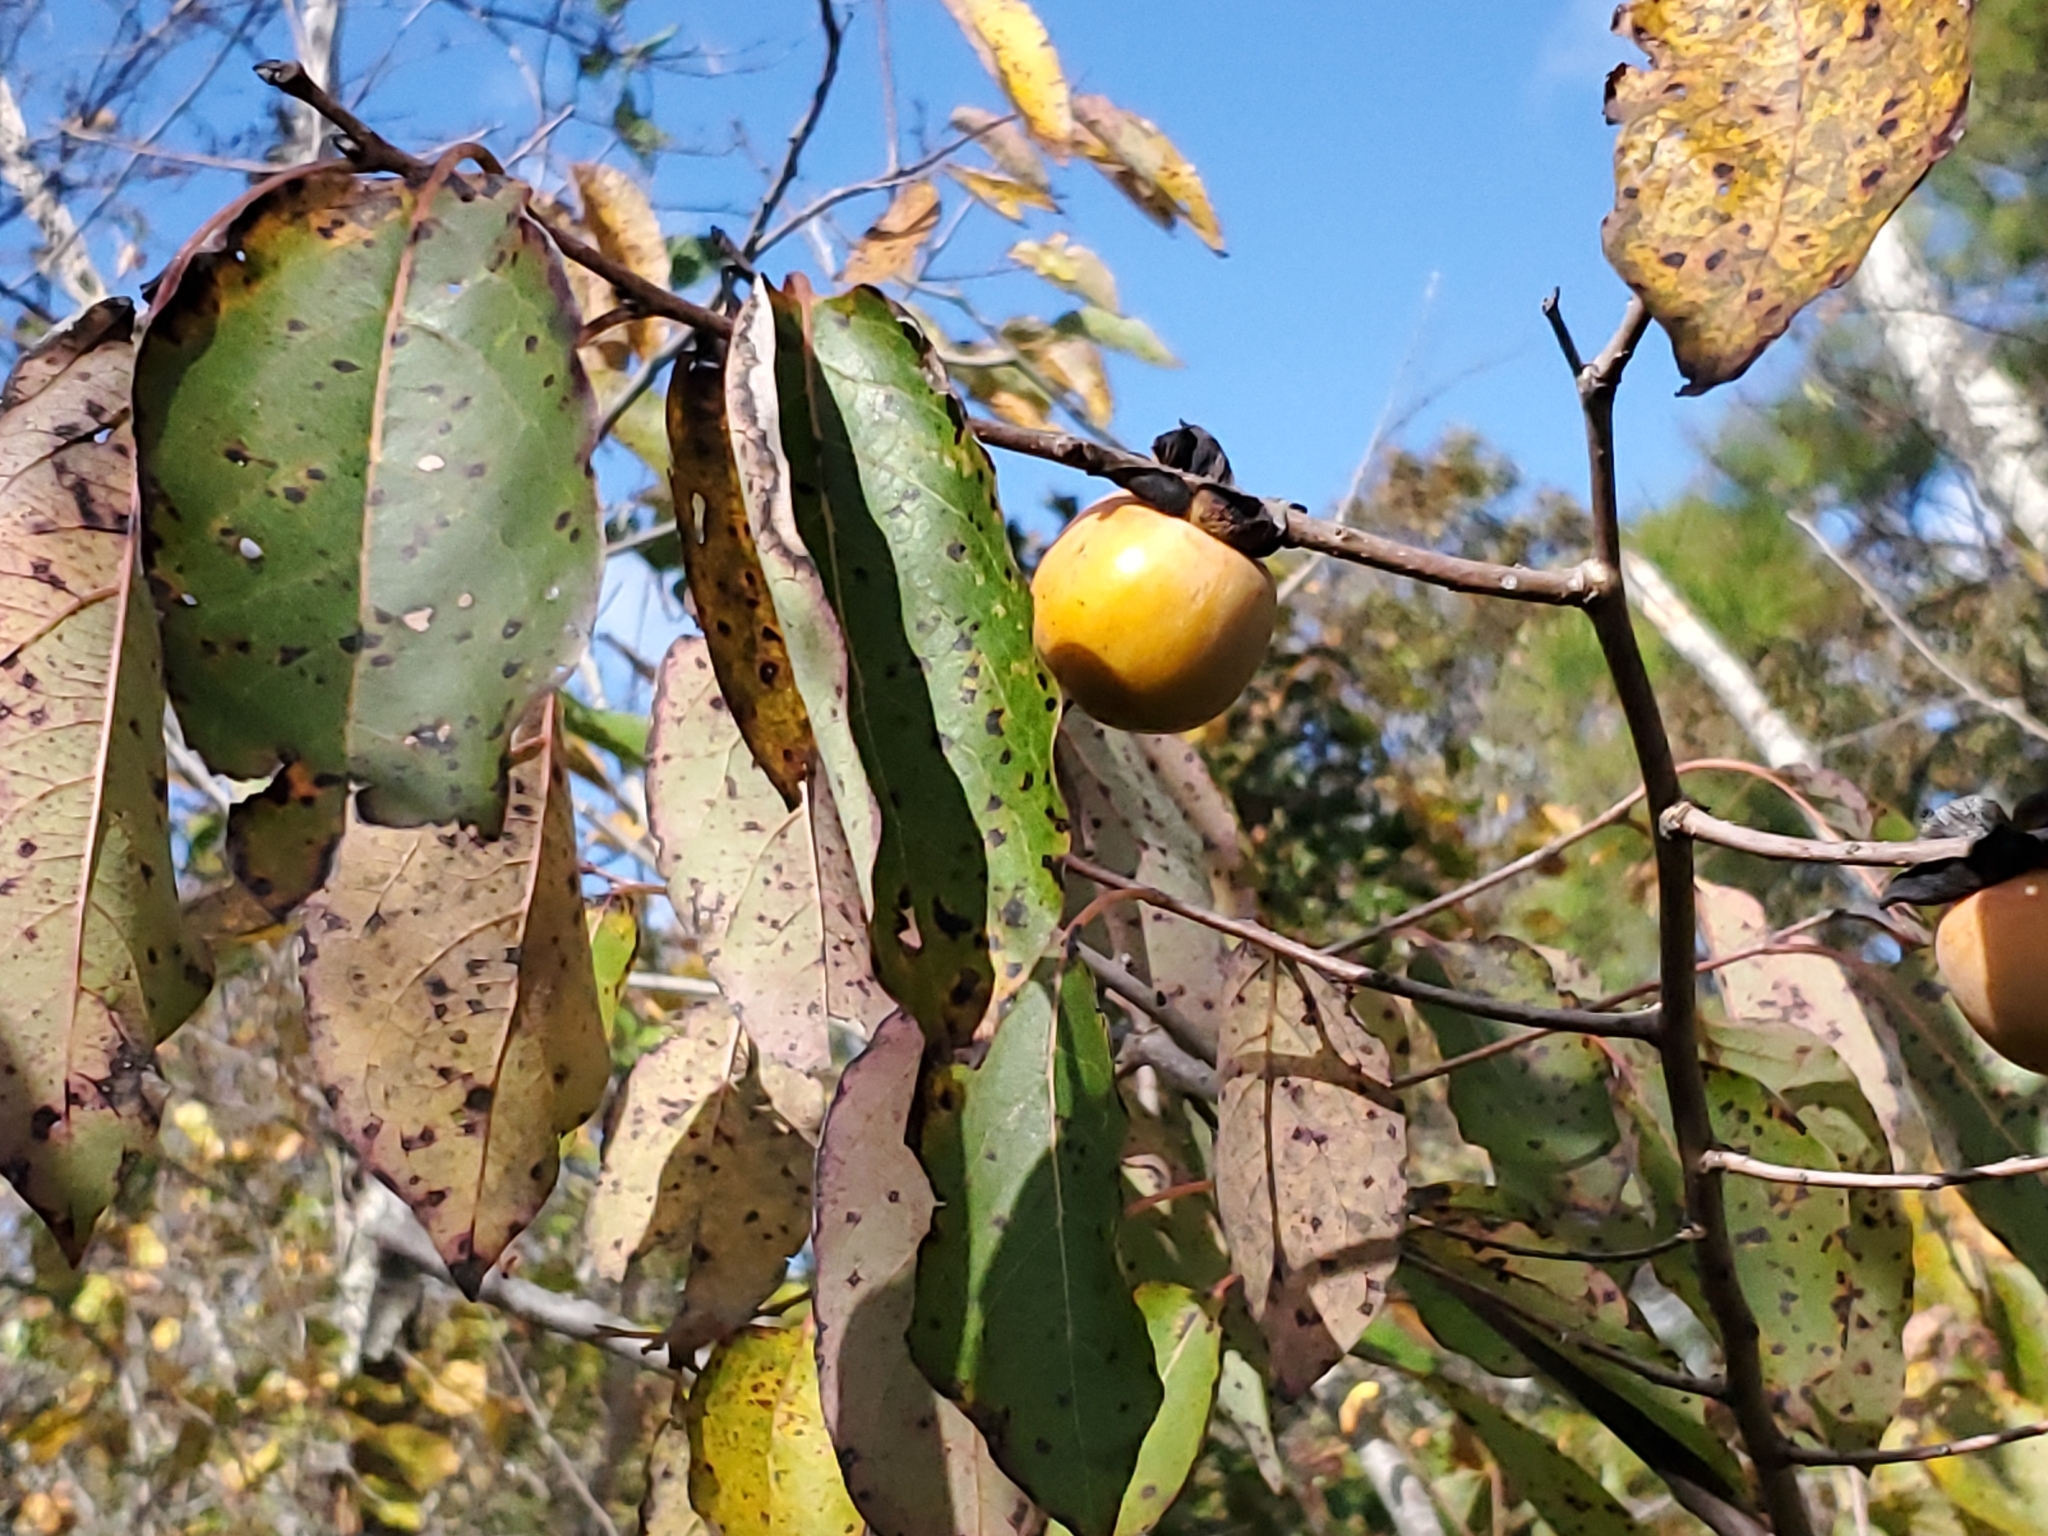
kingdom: Plantae
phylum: Tracheophyta
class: Magnoliopsida
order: Ericales
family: Ebenaceae
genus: Diospyros
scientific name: Diospyros virginiana
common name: Persimmon
